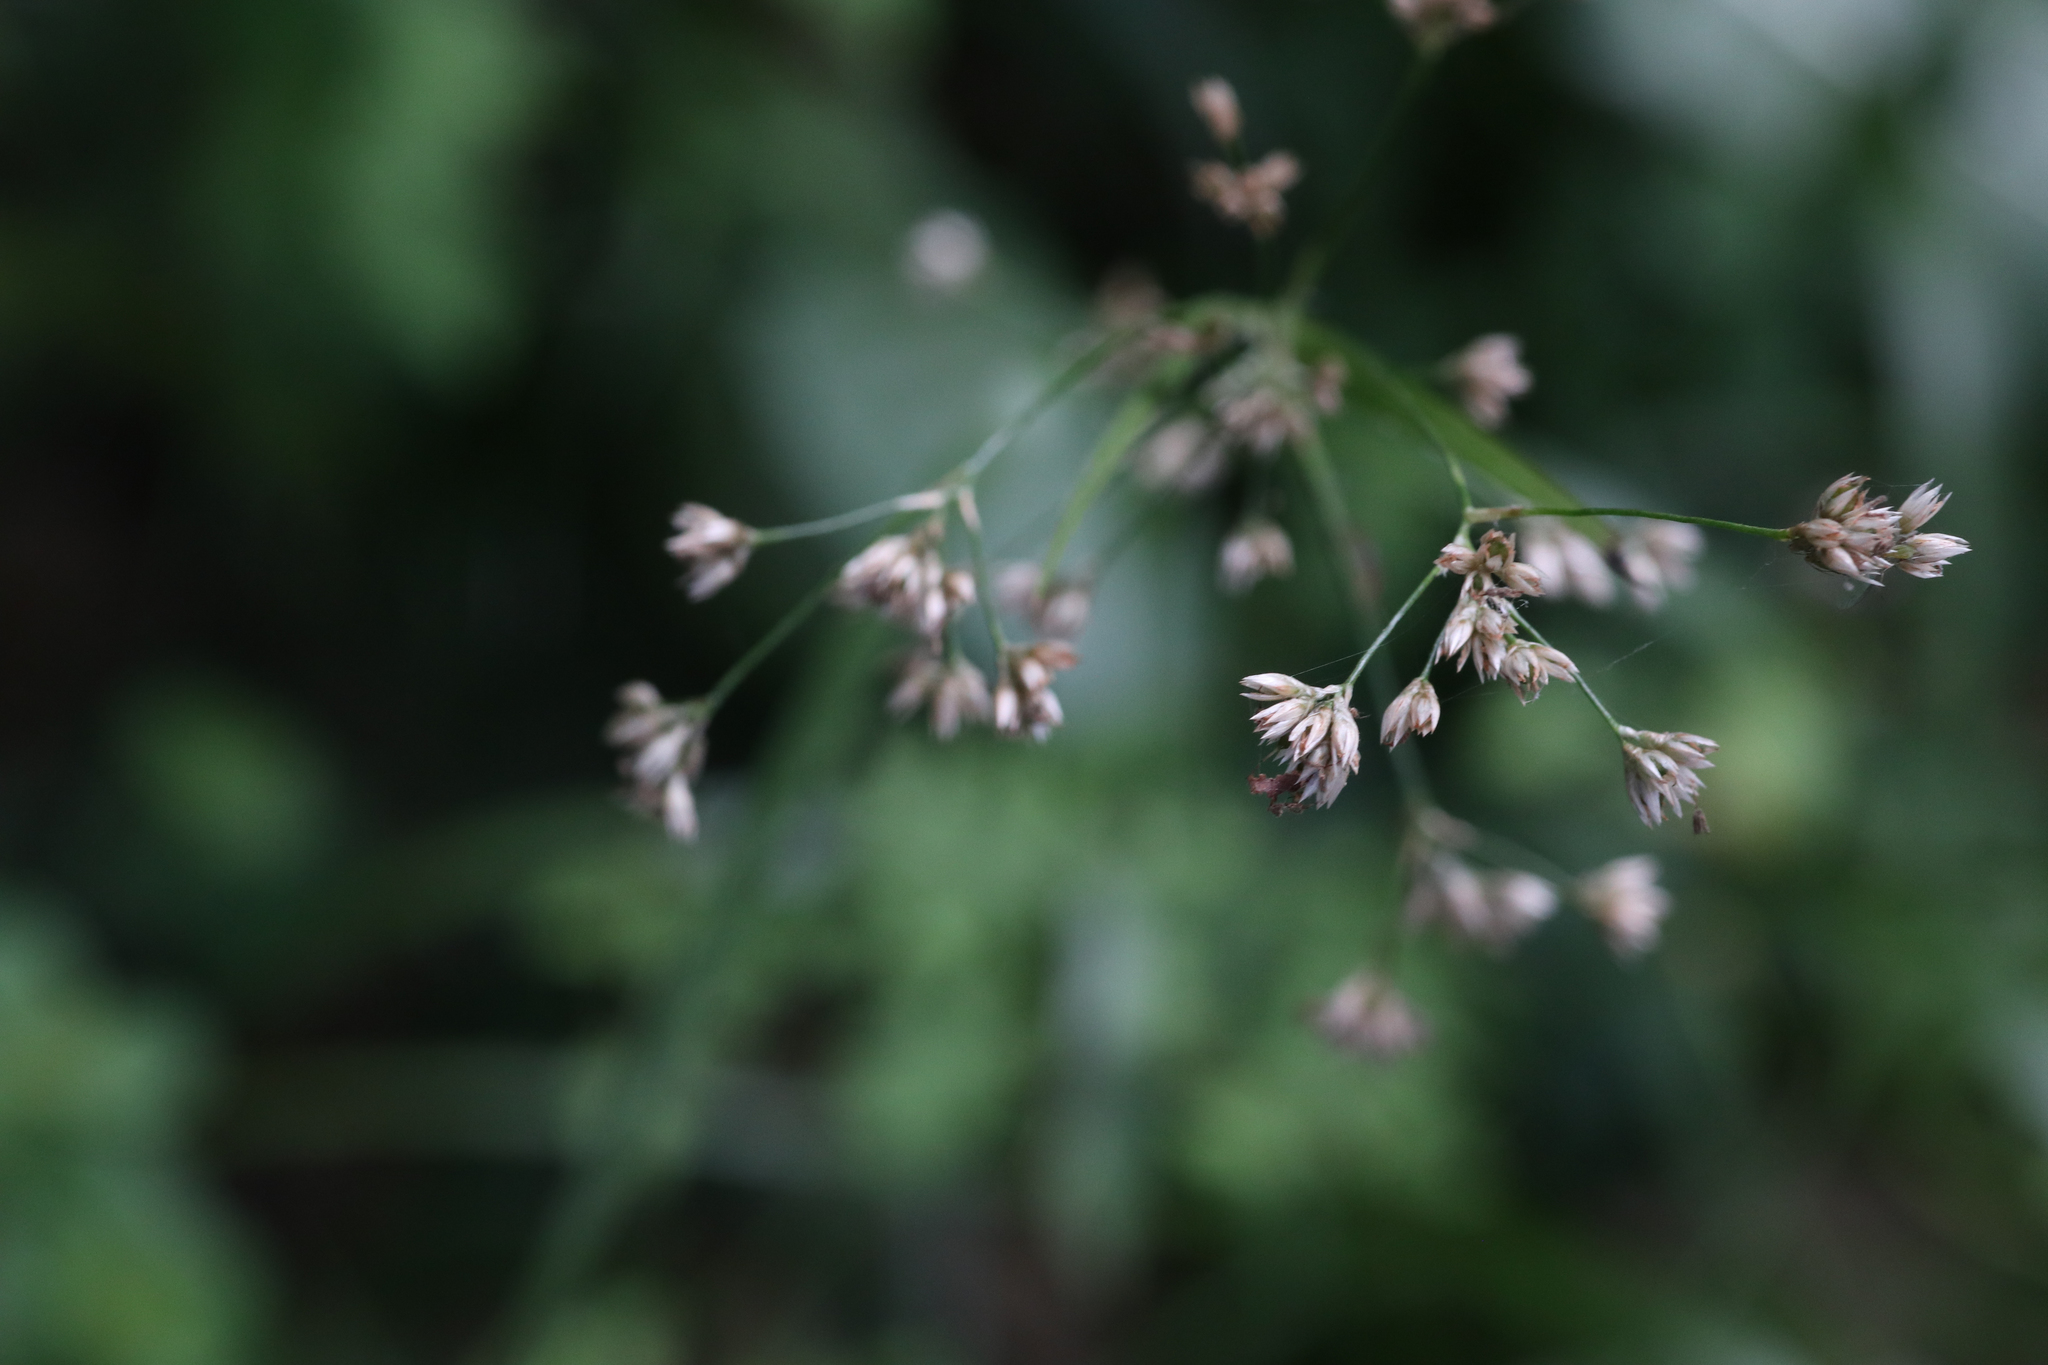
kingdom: Plantae
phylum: Tracheophyta
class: Liliopsida
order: Poales
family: Juncaceae
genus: Luzula
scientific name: Luzula luzuloides
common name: White wood-rush
